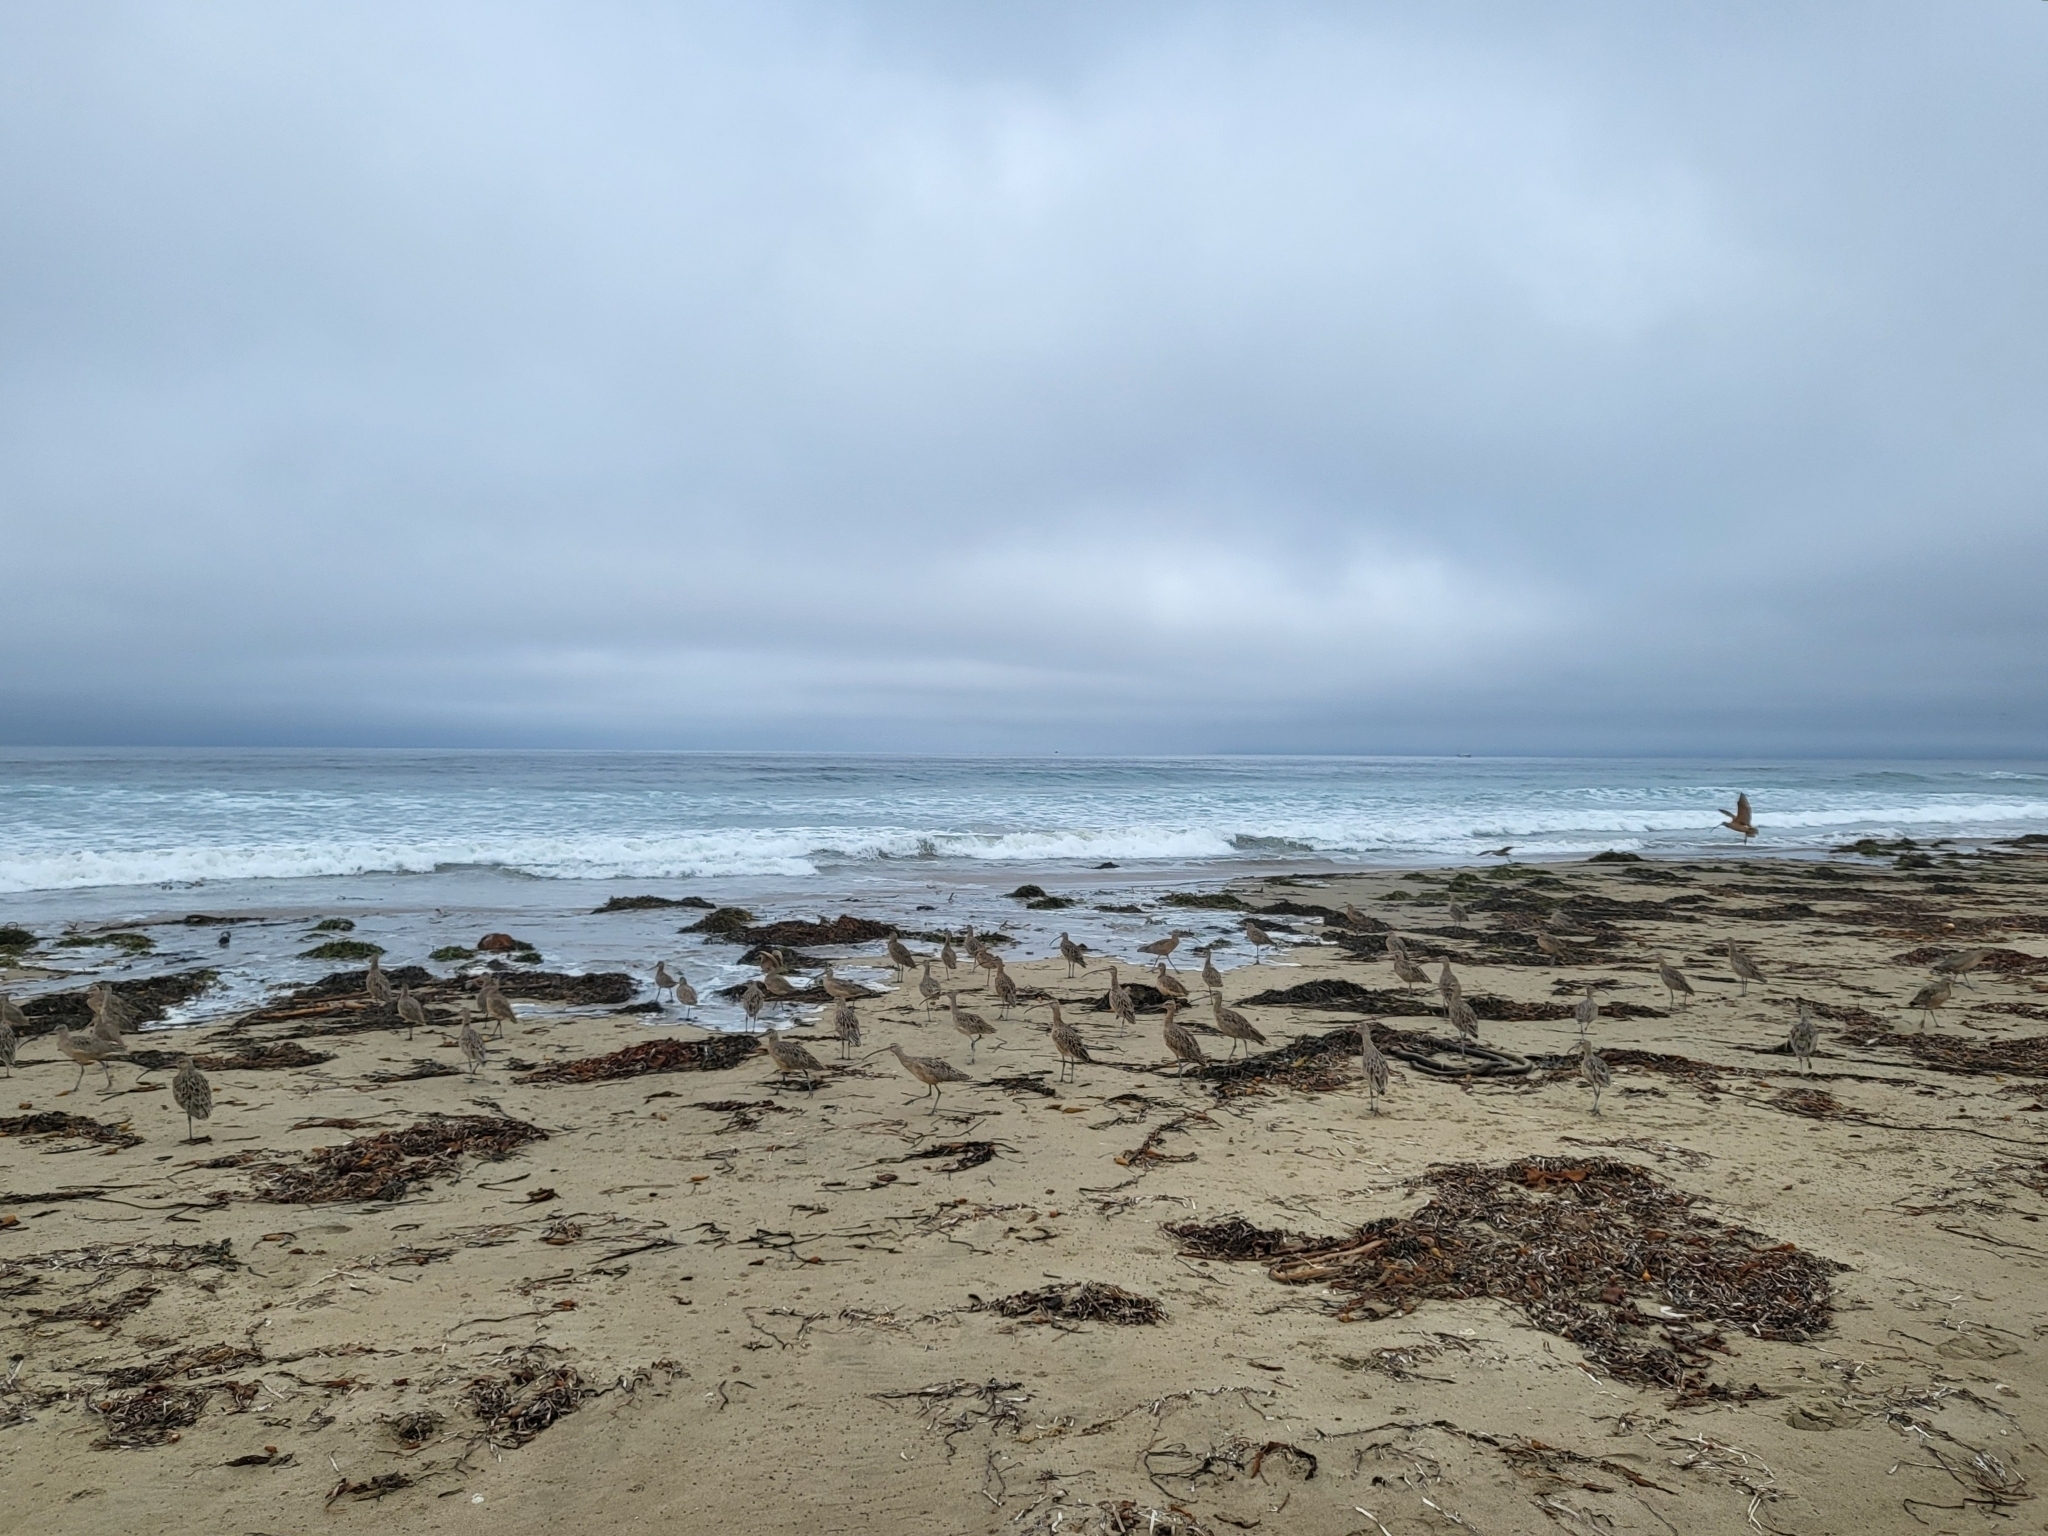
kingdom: Animalia
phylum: Chordata
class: Aves
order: Charadriiformes
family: Scolopacidae
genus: Numenius
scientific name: Numenius americanus
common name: Long-billed curlew
